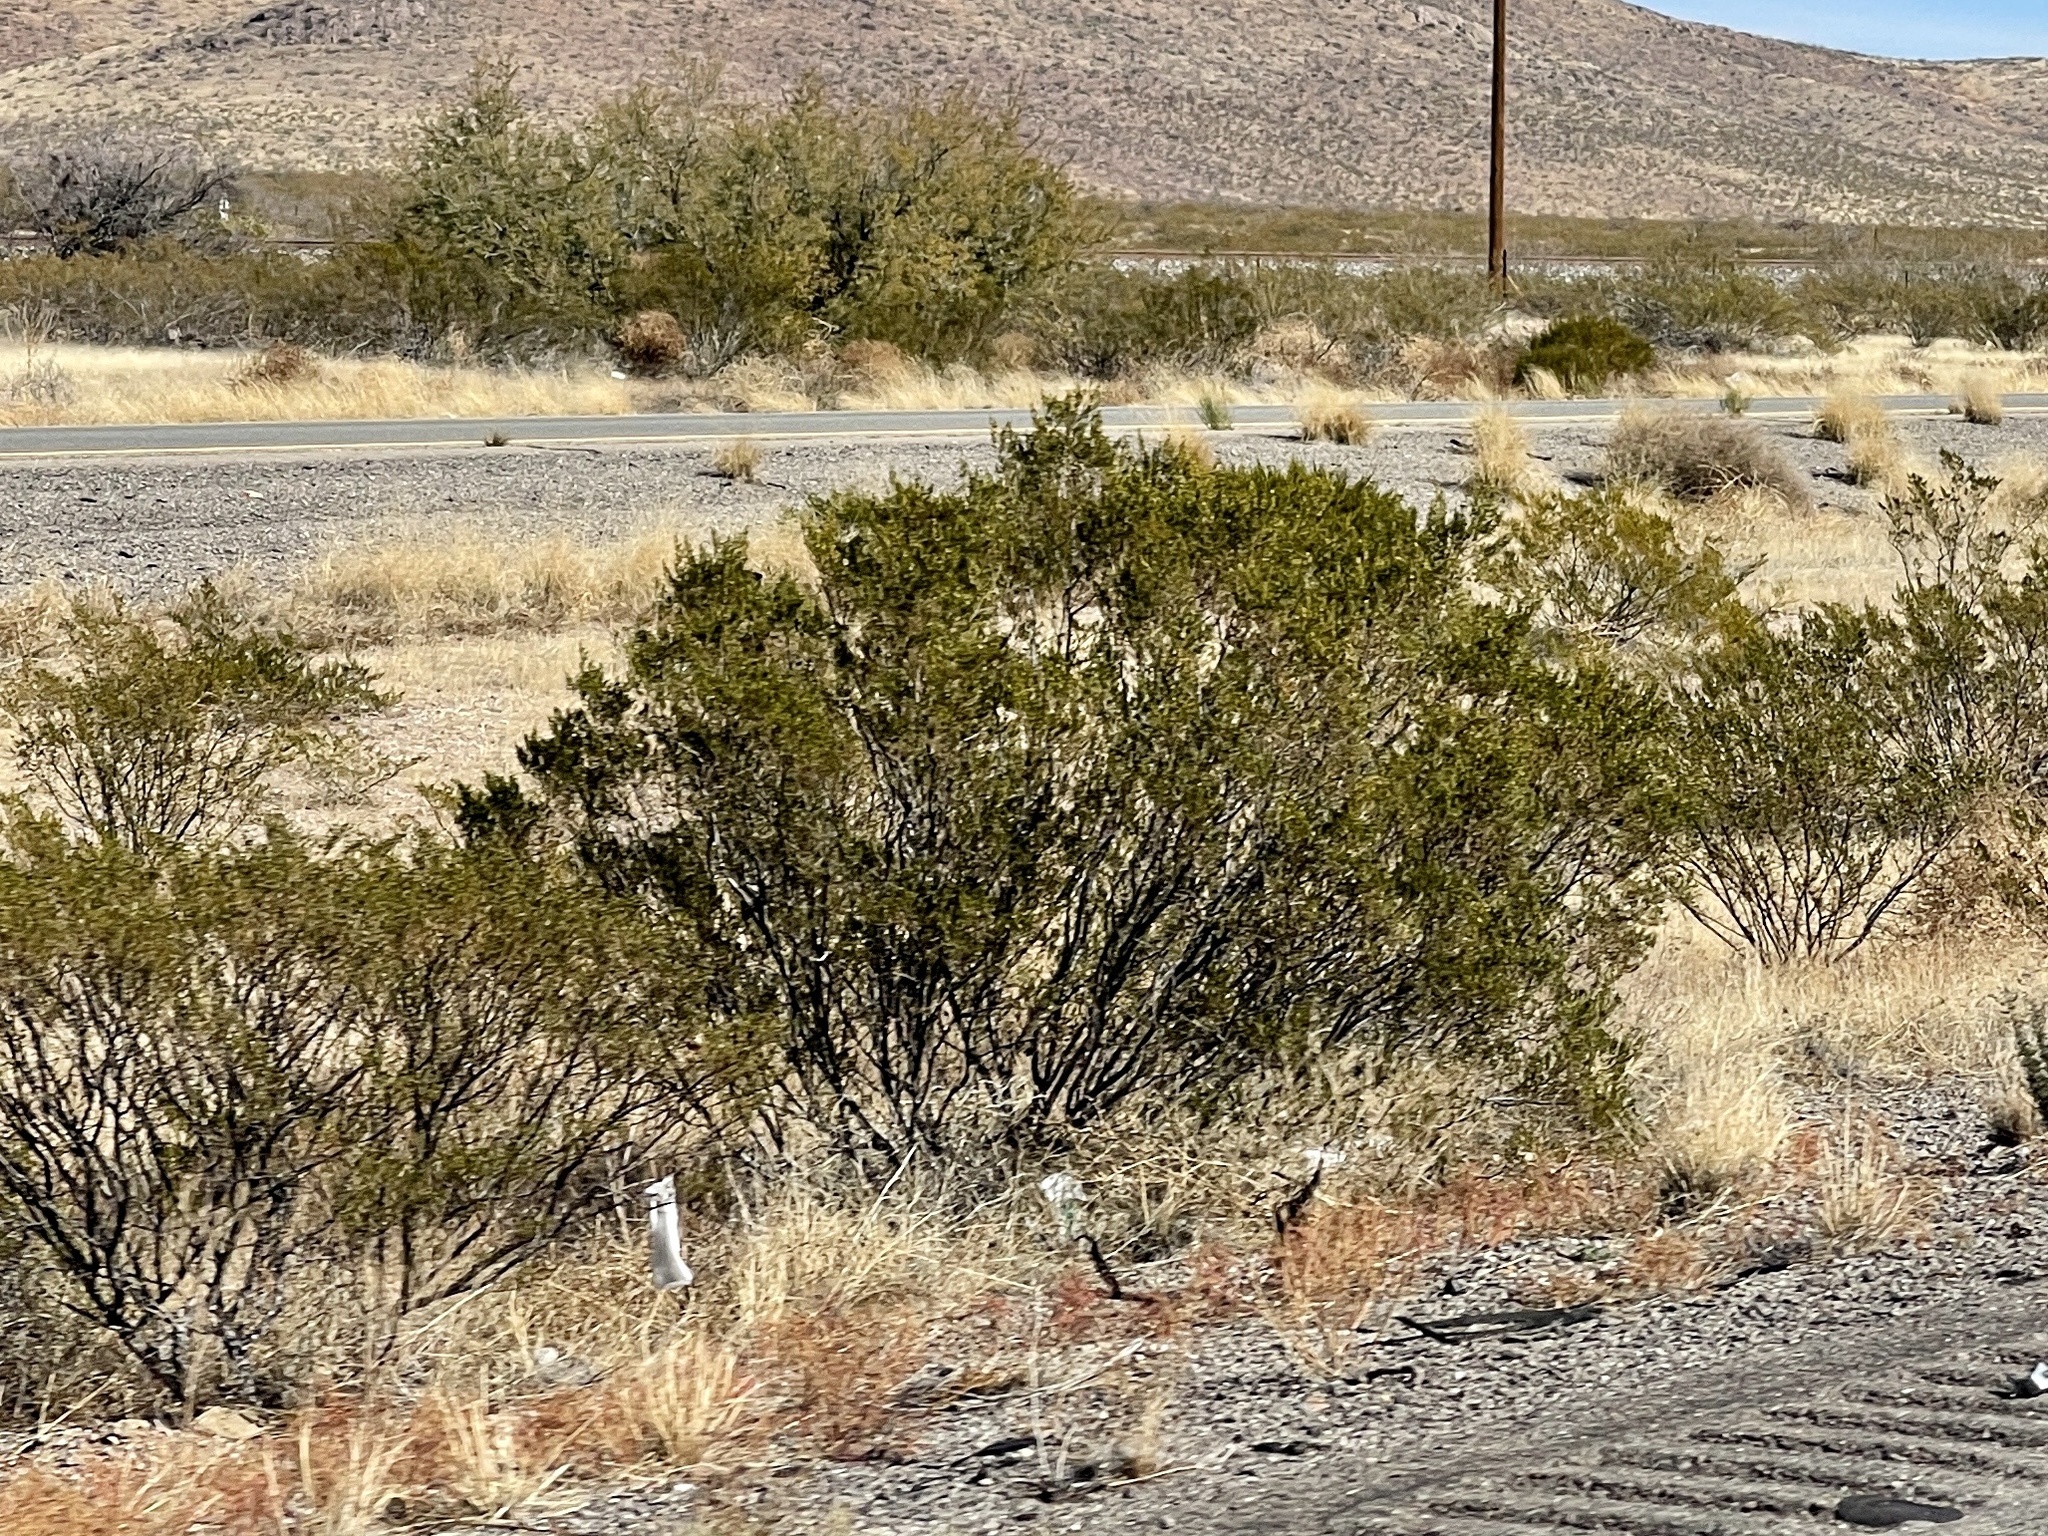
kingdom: Plantae
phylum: Tracheophyta
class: Magnoliopsida
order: Zygophyllales
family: Zygophyllaceae
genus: Larrea
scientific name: Larrea tridentata
